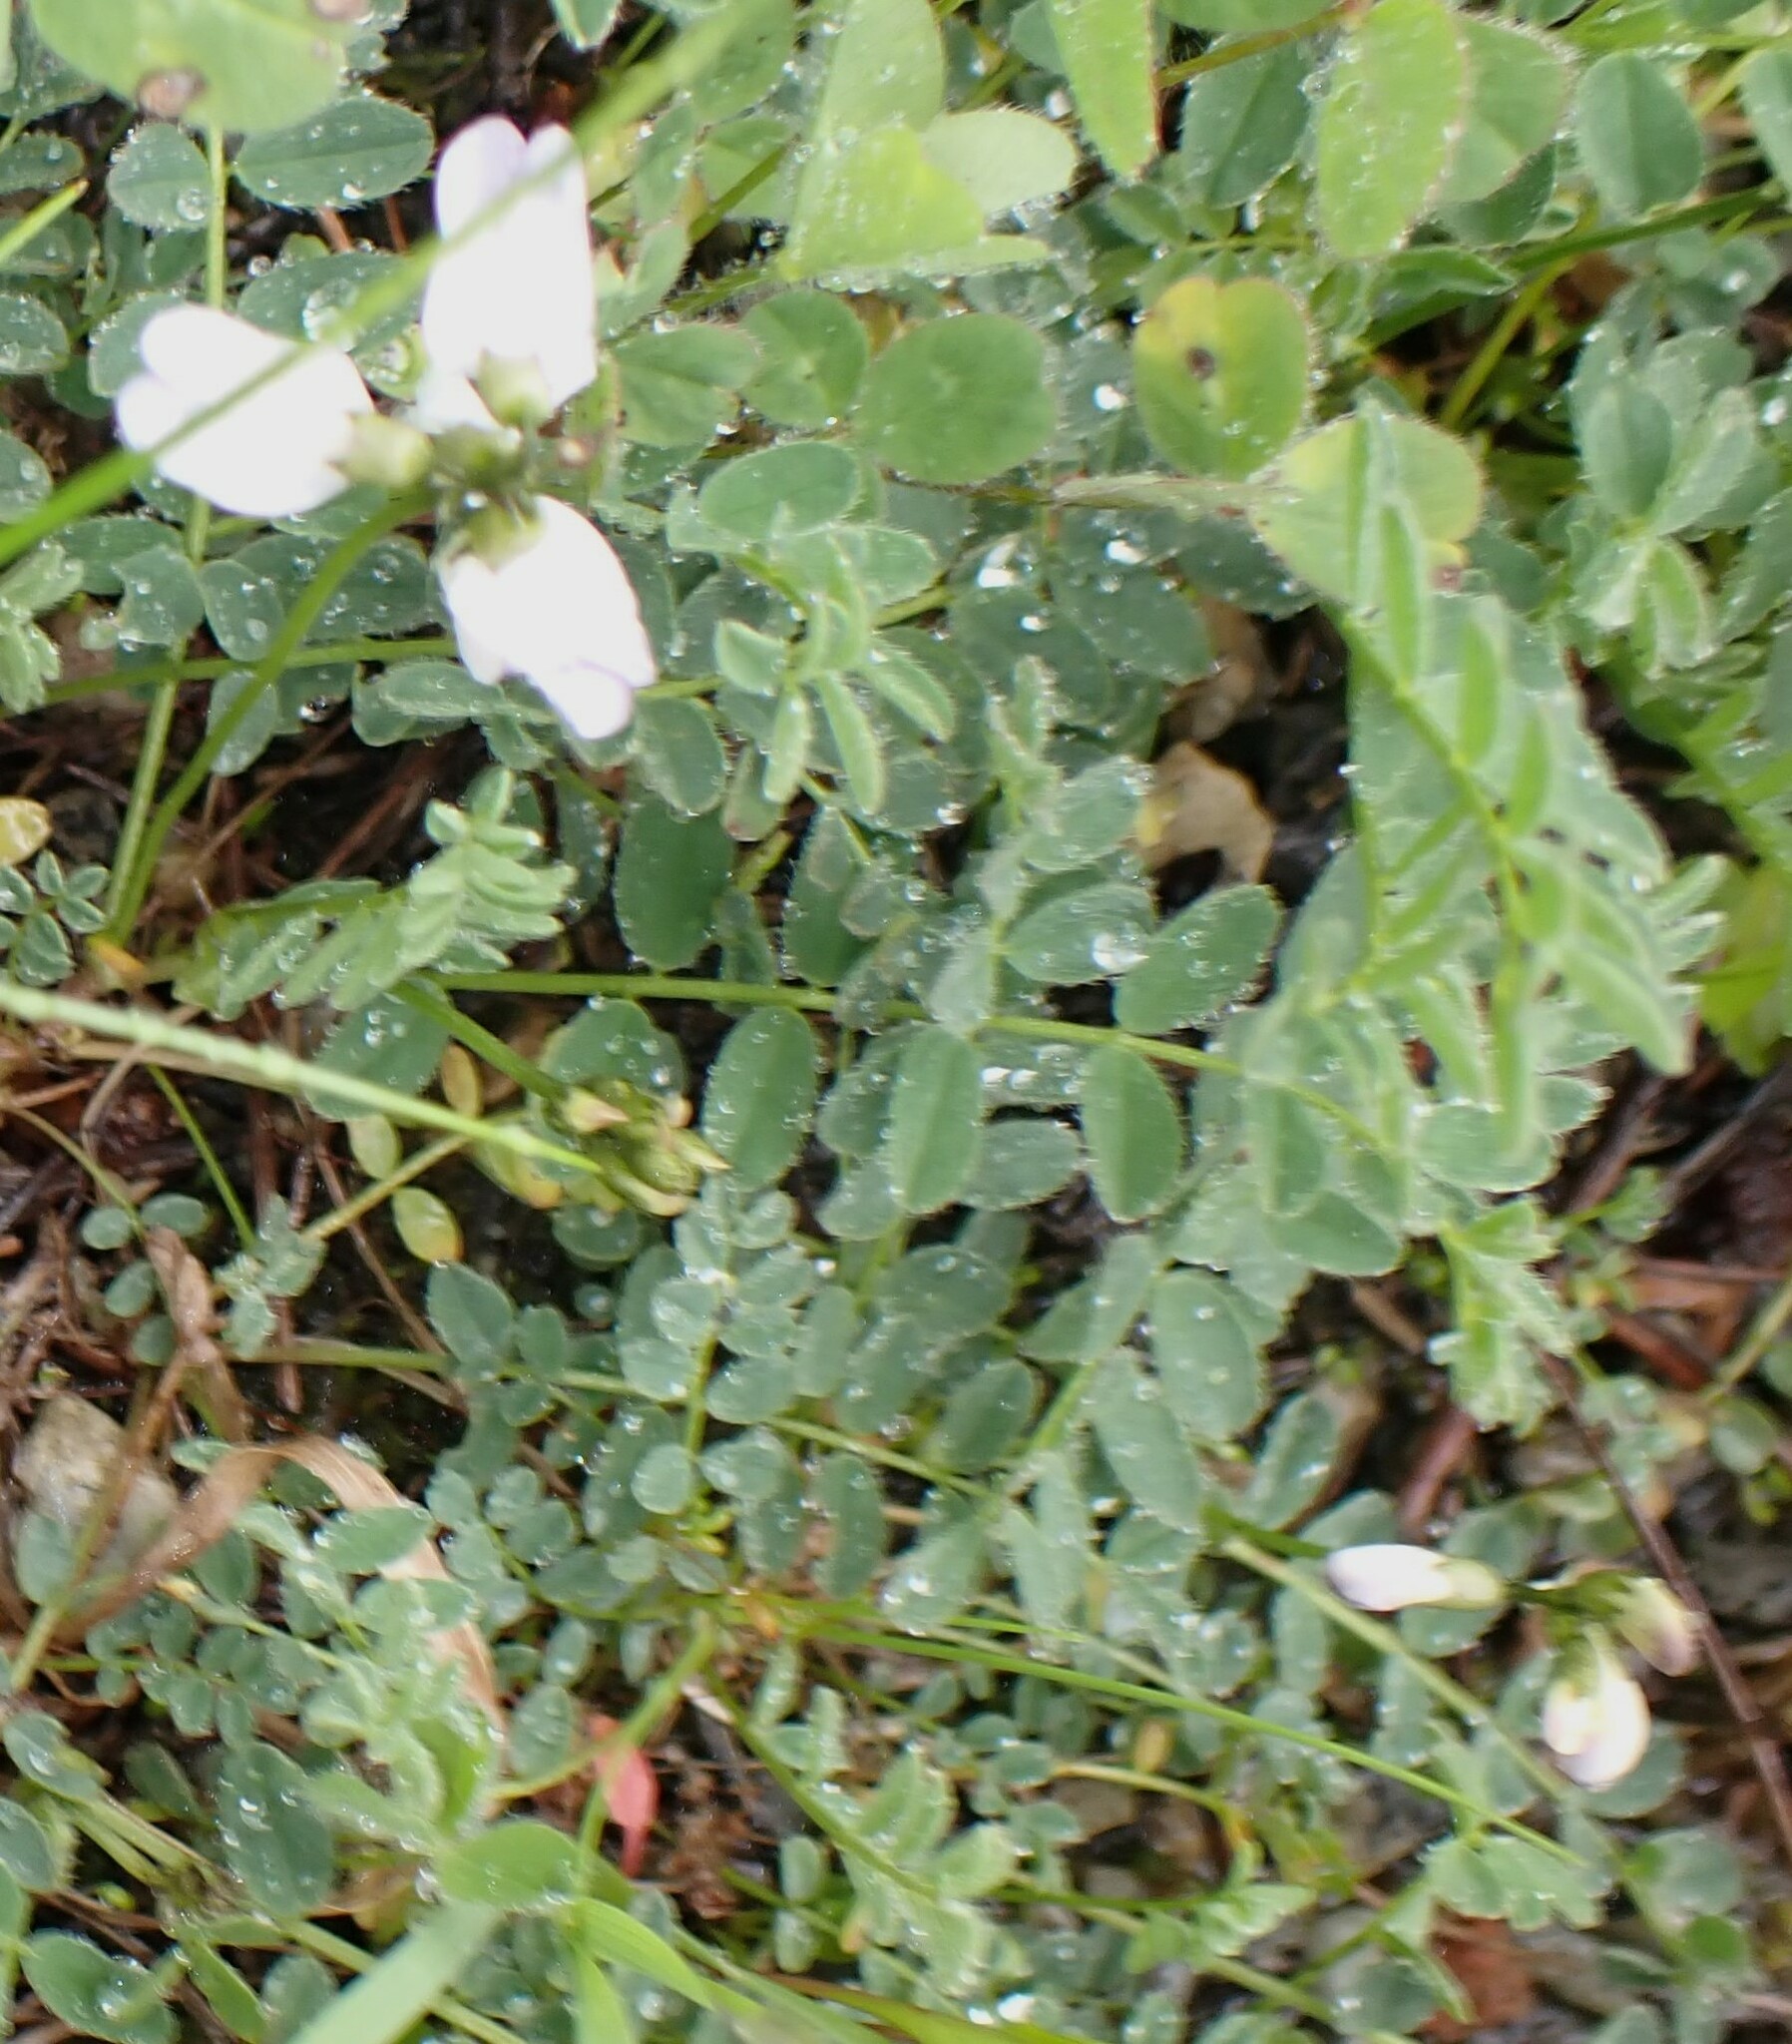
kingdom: Plantae
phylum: Tracheophyta
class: Magnoliopsida
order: Fabales
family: Fabaceae
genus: Astragalus
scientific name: Astragalus alpinus
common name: Alpine milk-vetch
